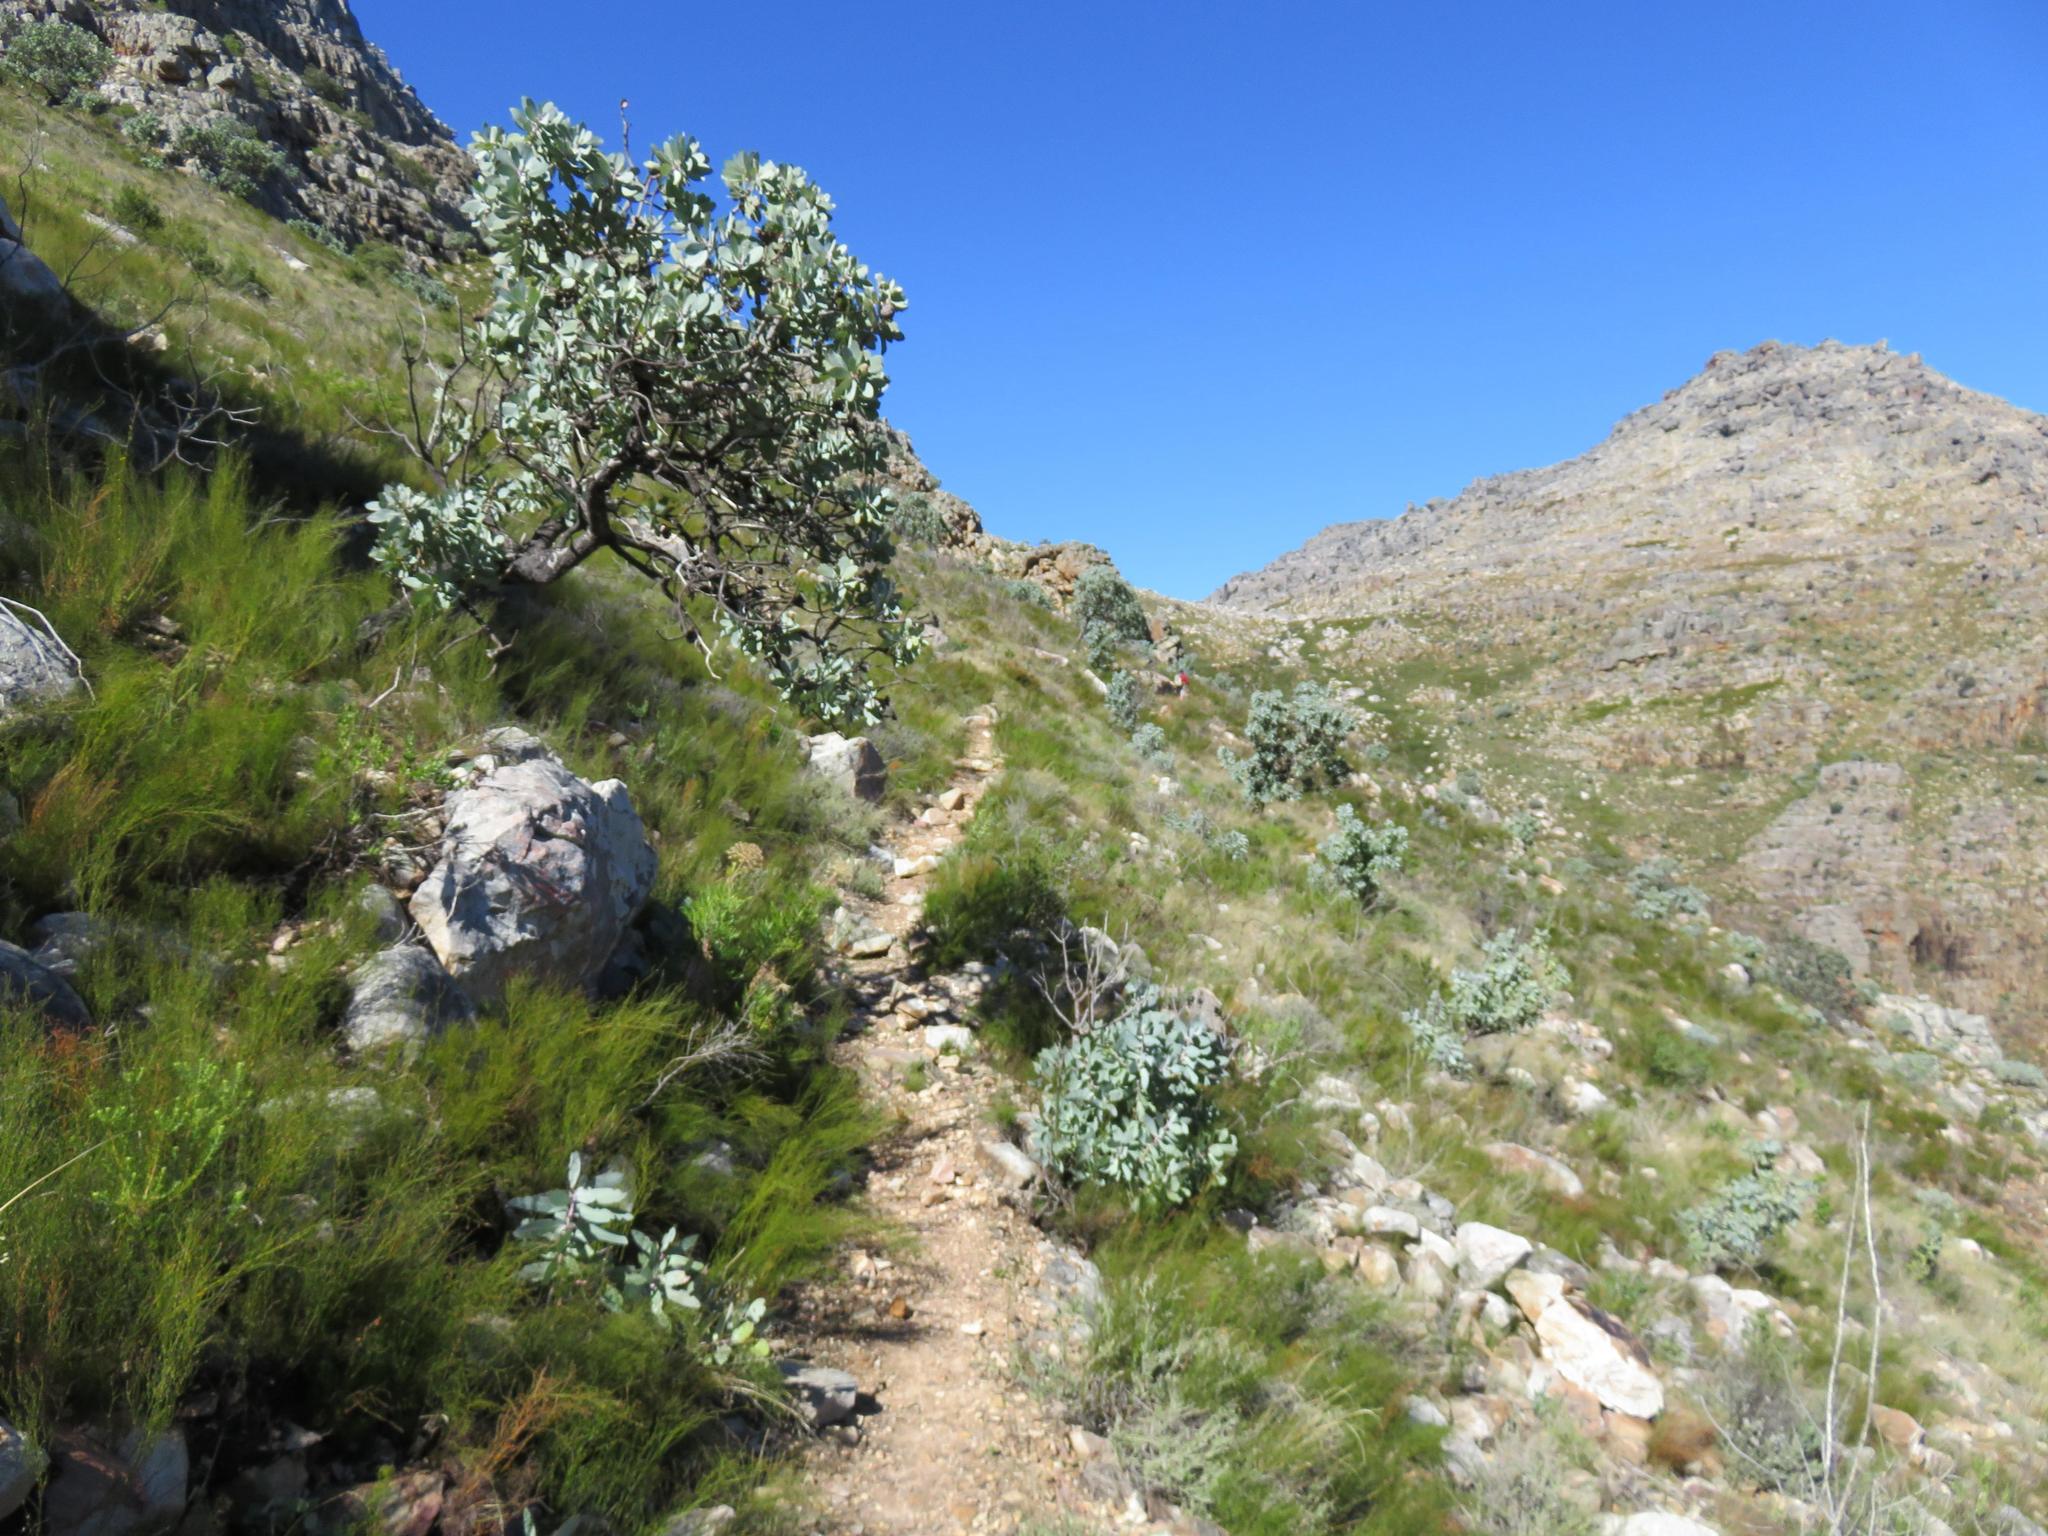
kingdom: Plantae
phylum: Tracheophyta
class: Magnoliopsida
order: Proteales
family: Proteaceae
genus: Protea
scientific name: Protea nitida
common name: Tree protea
